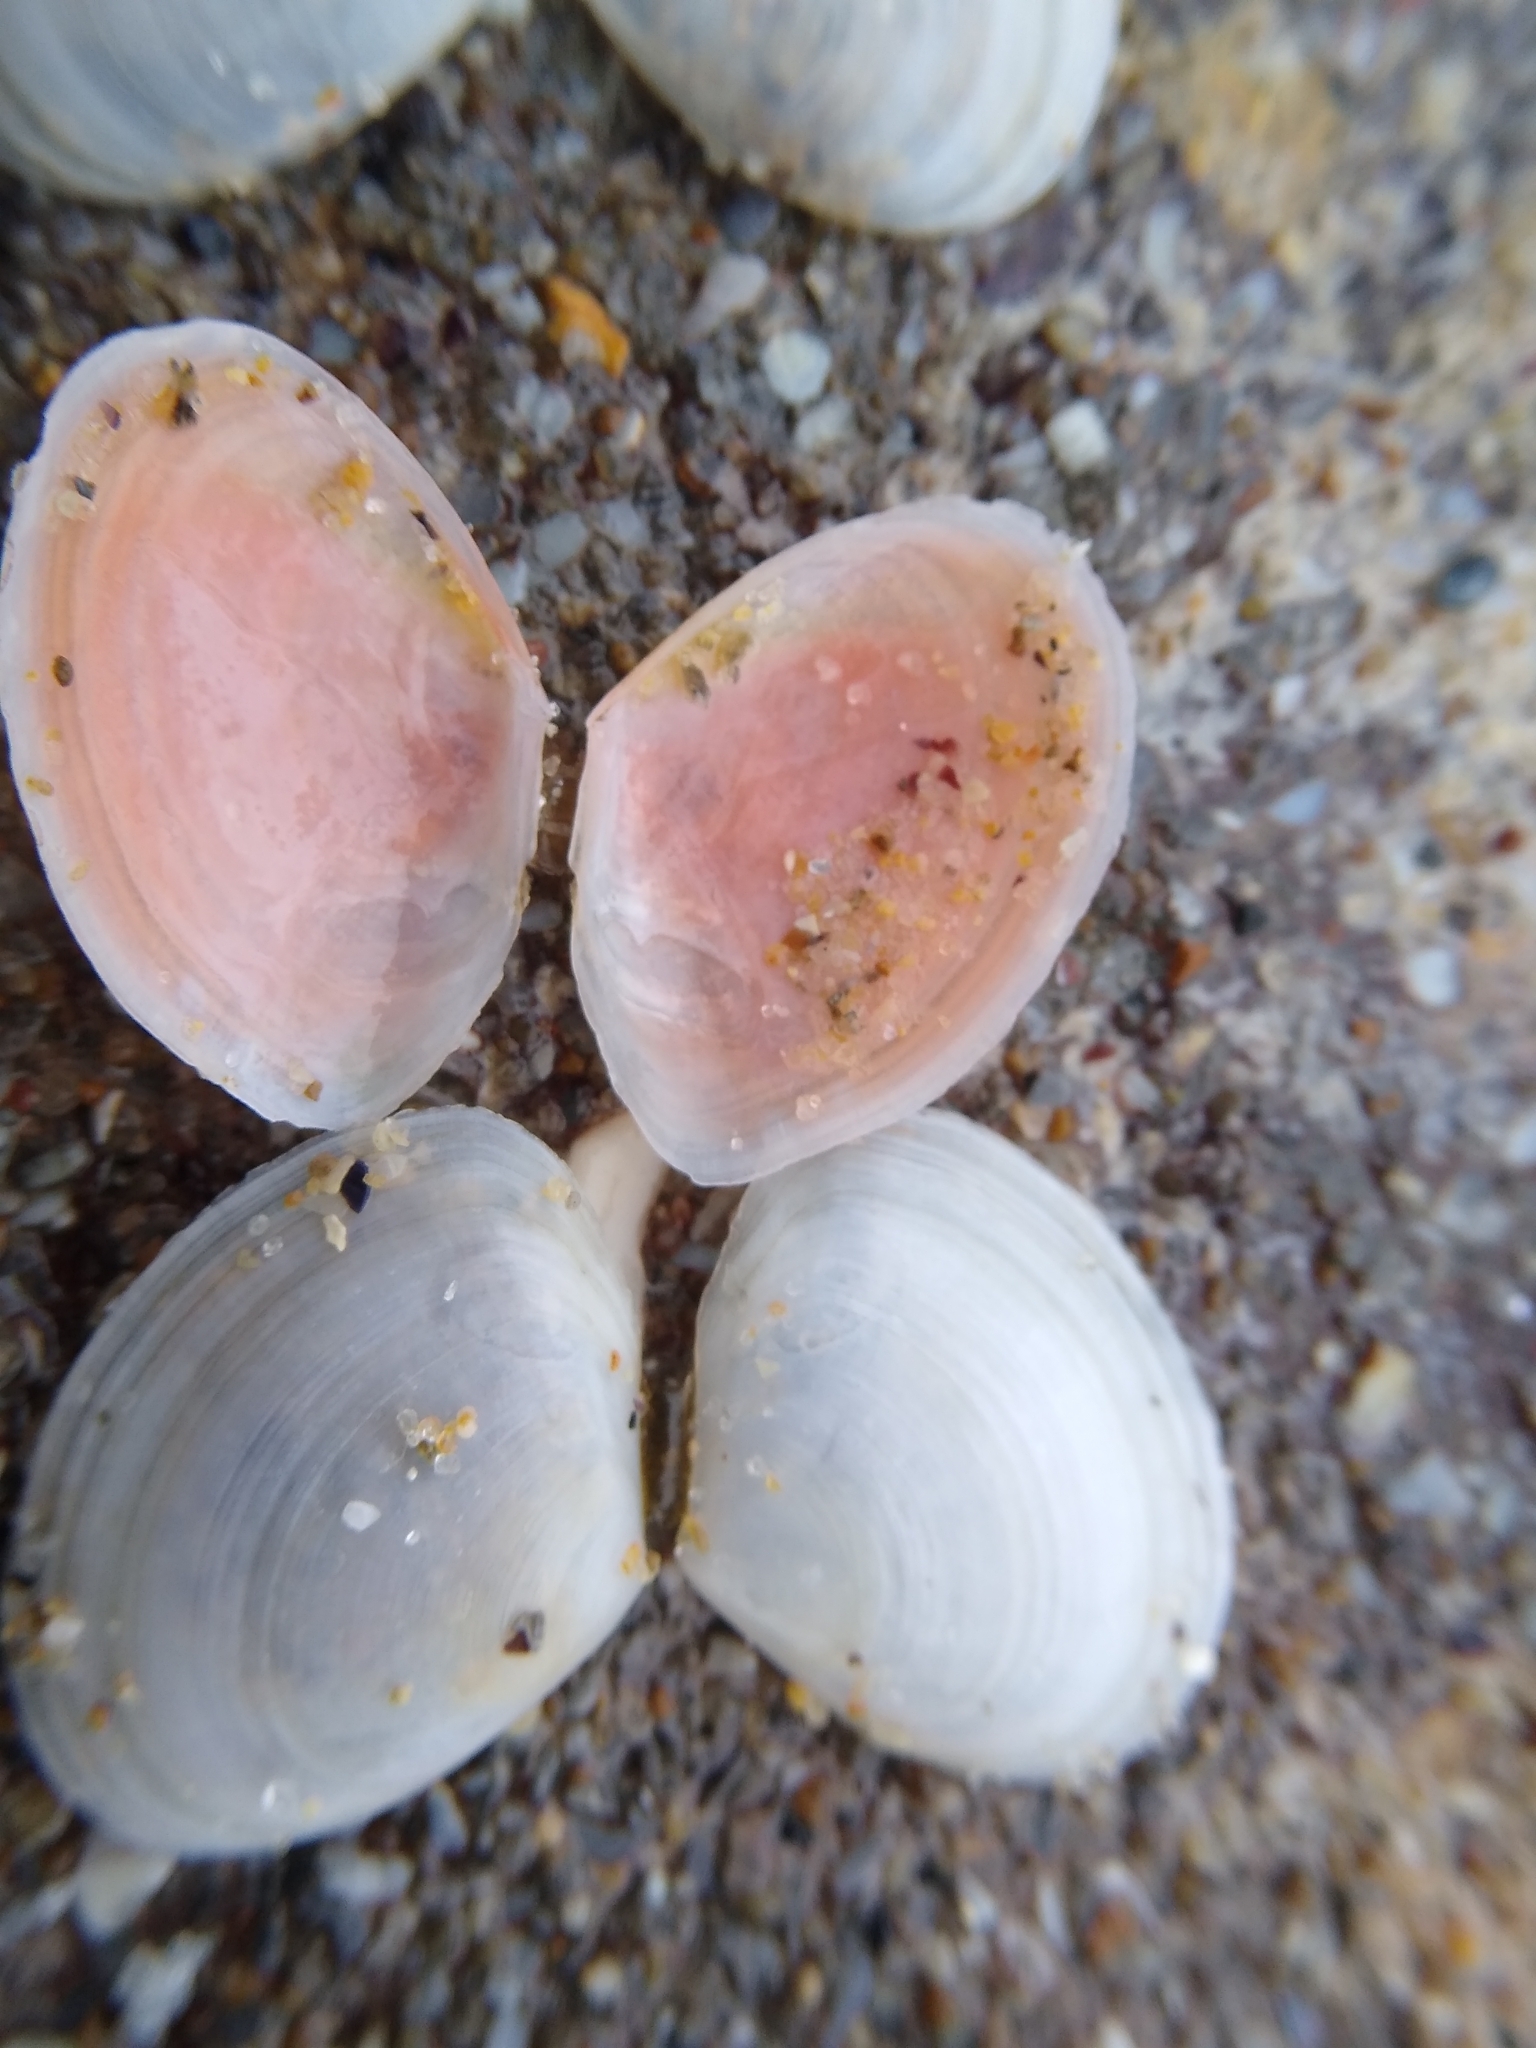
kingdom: Animalia
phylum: Mollusca
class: Bivalvia
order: Cardiida
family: Tellinidae
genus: Macomangulus
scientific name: Macomangulus tenuis
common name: Thin tellin
